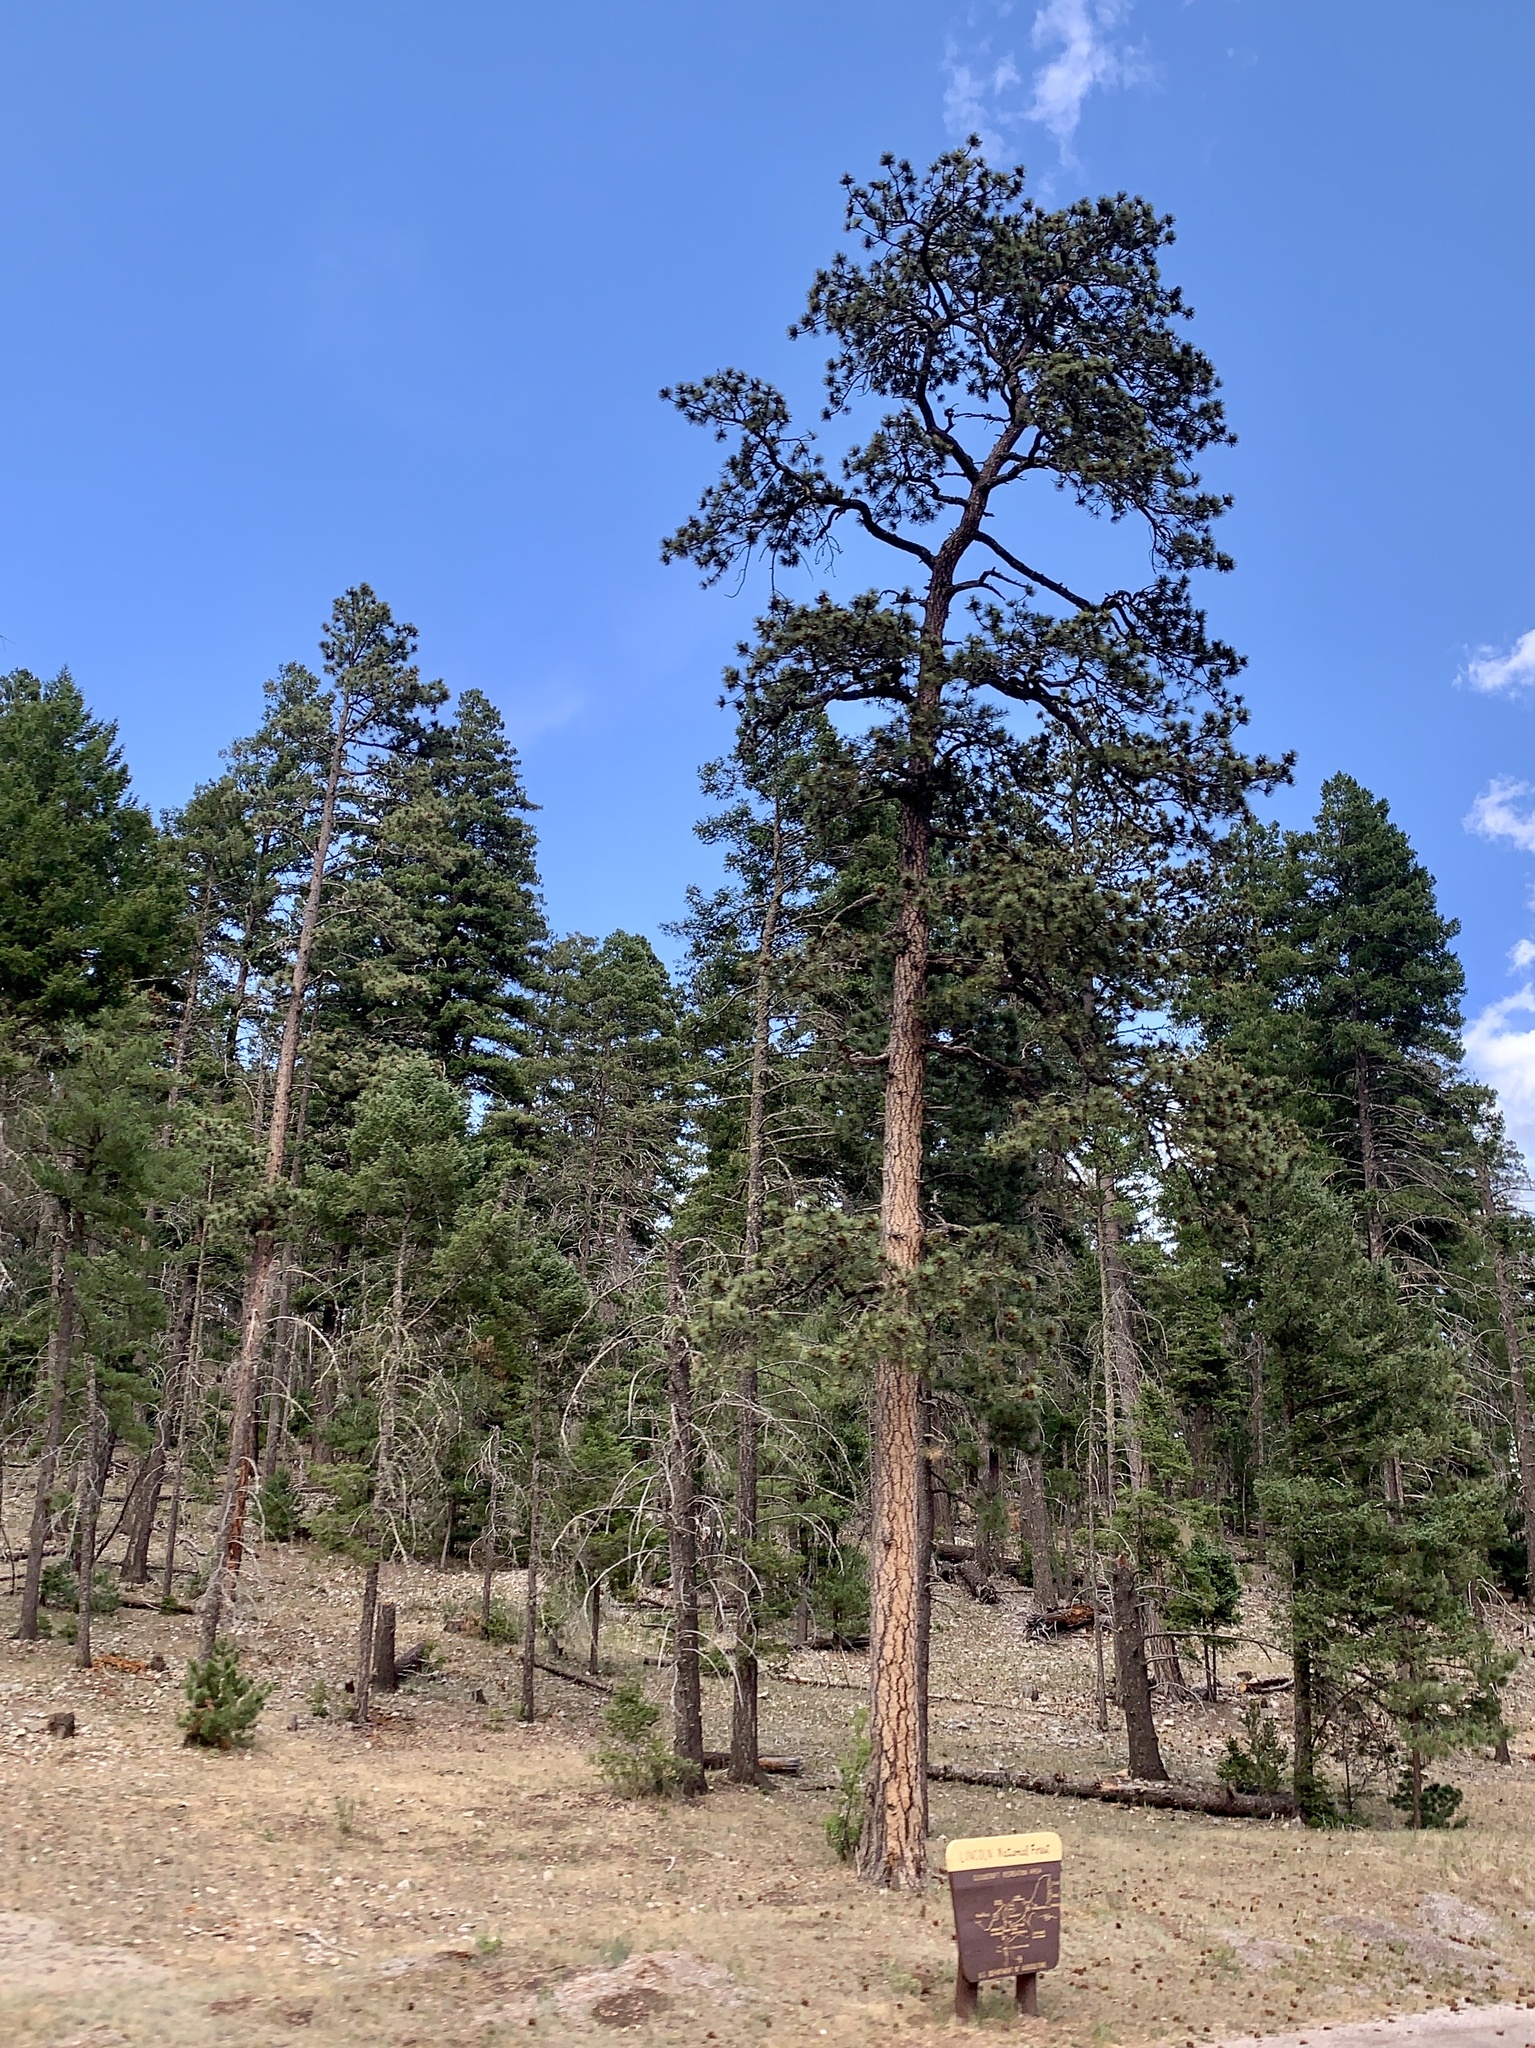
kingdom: Plantae
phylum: Tracheophyta
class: Pinopsida
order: Pinales
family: Pinaceae
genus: Pinus
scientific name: Pinus ponderosa
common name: Western yellow-pine
